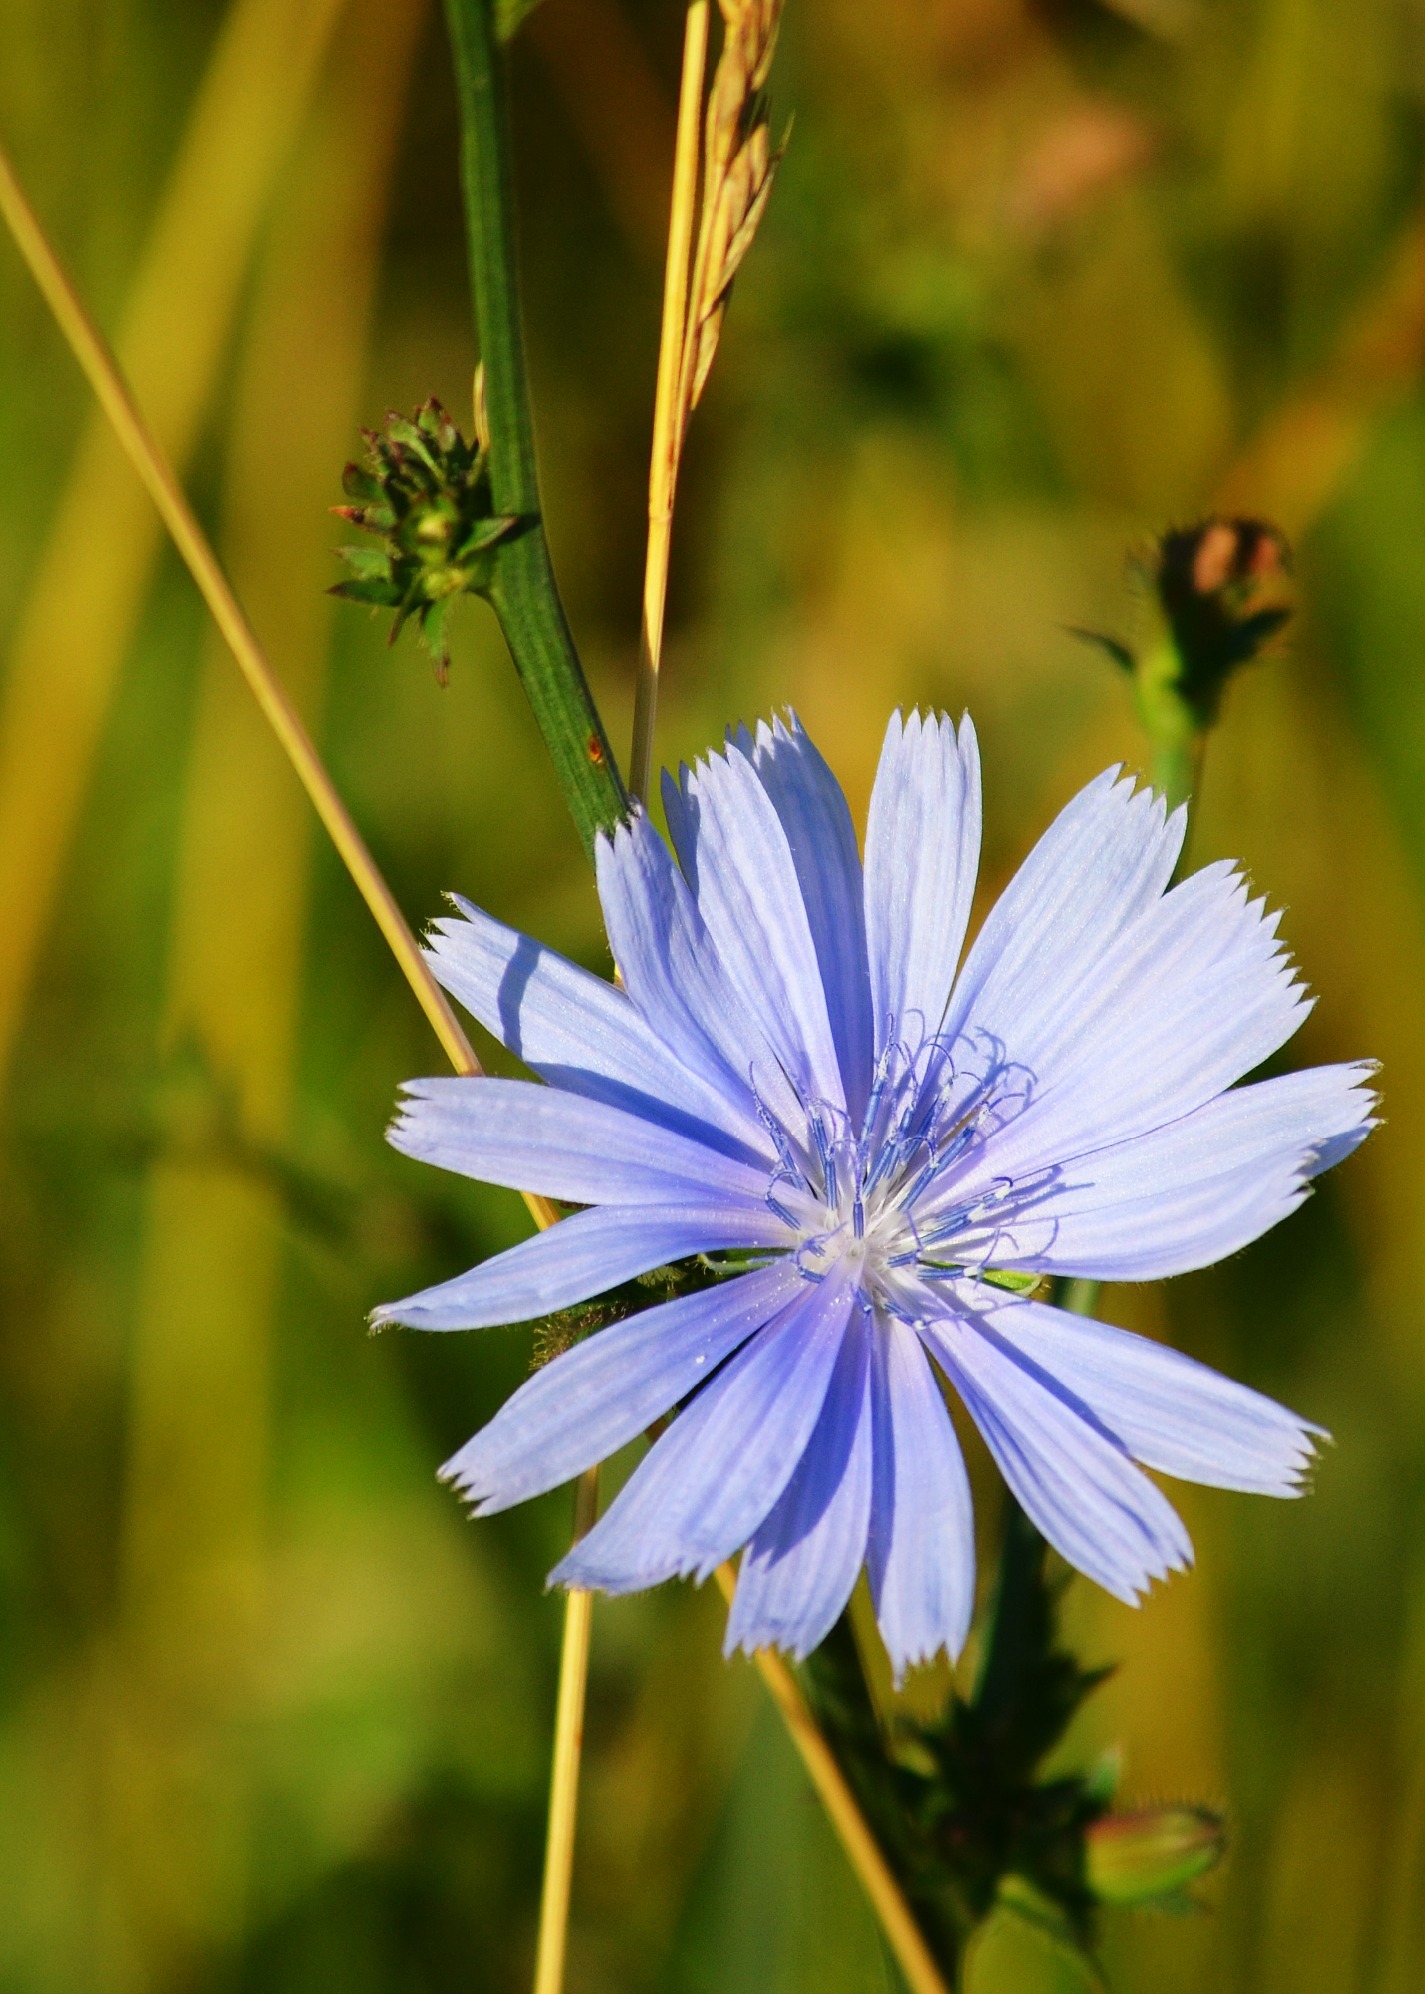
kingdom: Plantae
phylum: Tracheophyta
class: Magnoliopsida
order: Asterales
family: Asteraceae
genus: Cichorium
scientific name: Cichorium intybus
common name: Chicory
